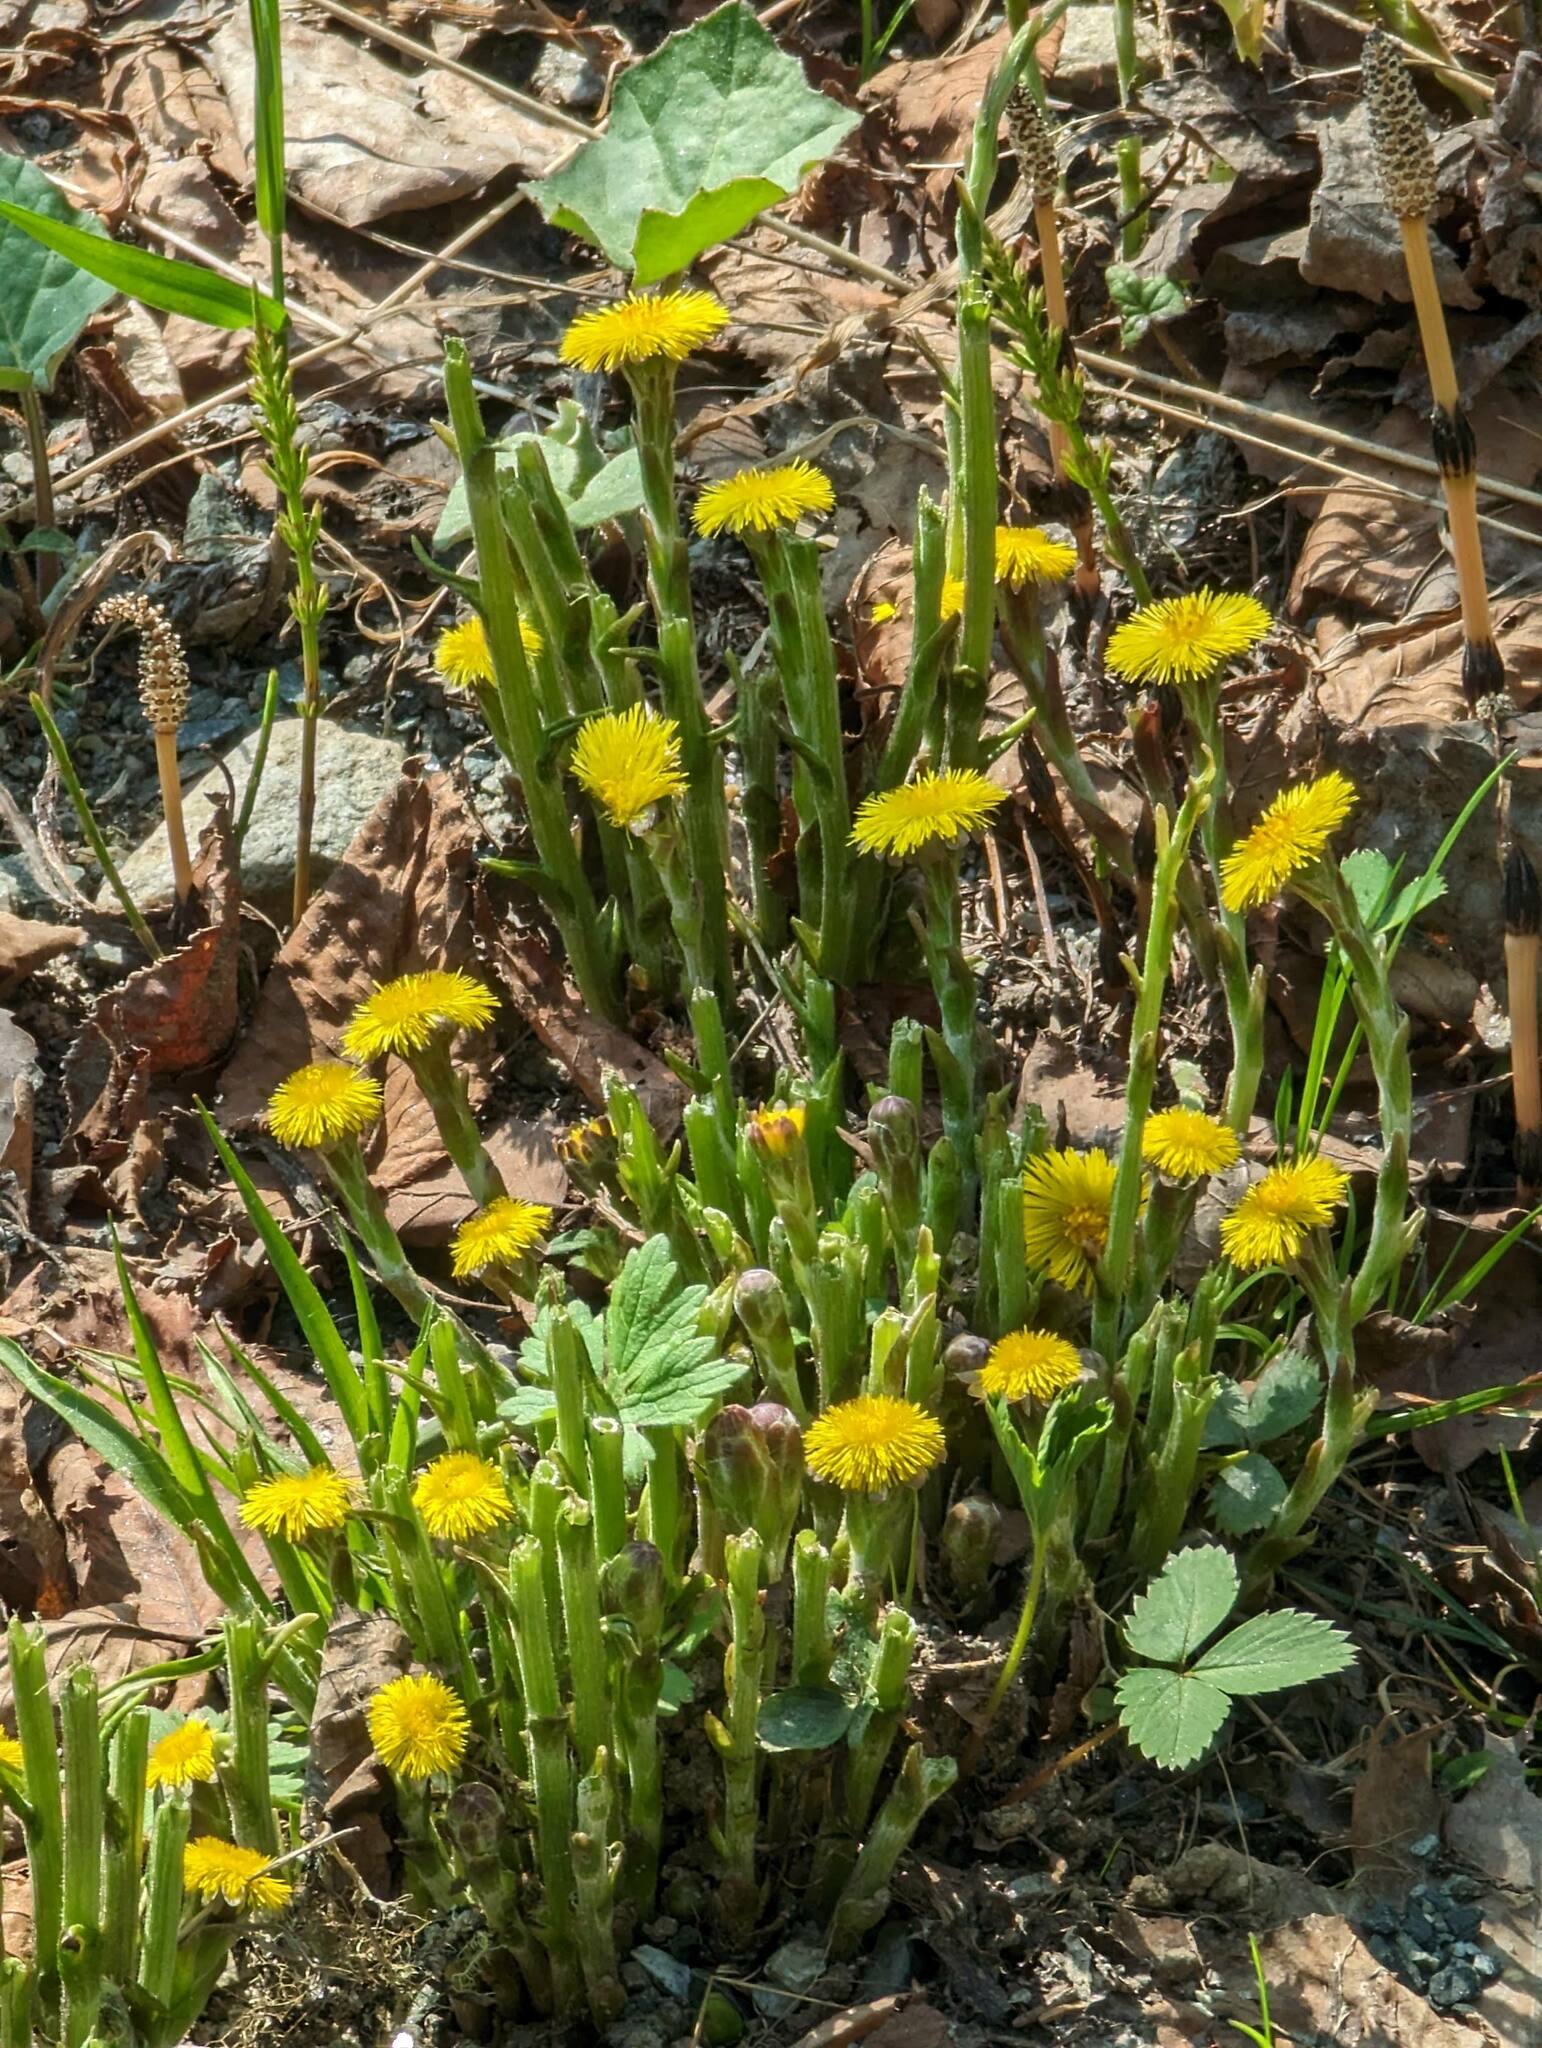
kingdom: Plantae
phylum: Tracheophyta
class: Magnoliopsida
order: Asterales
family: Asteraceae
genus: Tussilago
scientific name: Tussilago farfara
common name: Coltsfoot
